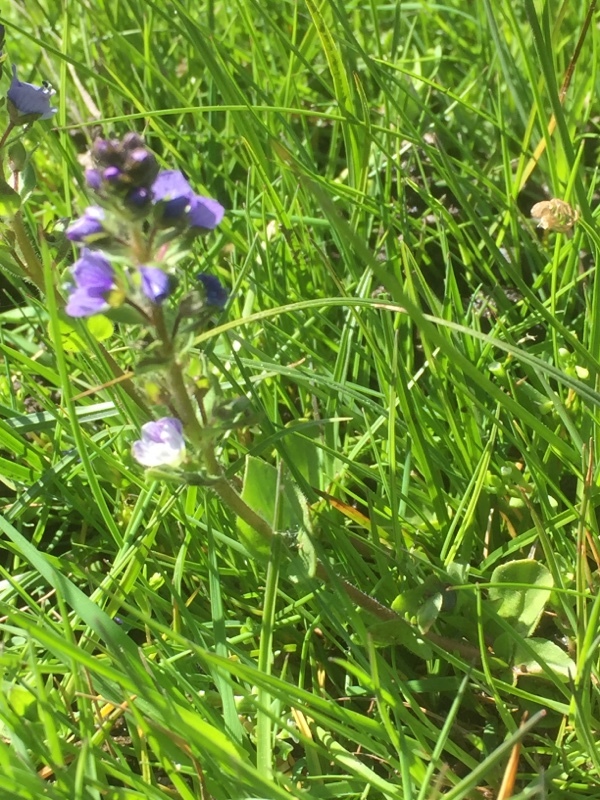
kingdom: Plantae
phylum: Tracheophyta
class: Magnoliopsida
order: Lamiales
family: Plantaginaceae
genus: Veronica
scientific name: Veronica serpyllifolia
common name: Thyme-leaved speedwell
